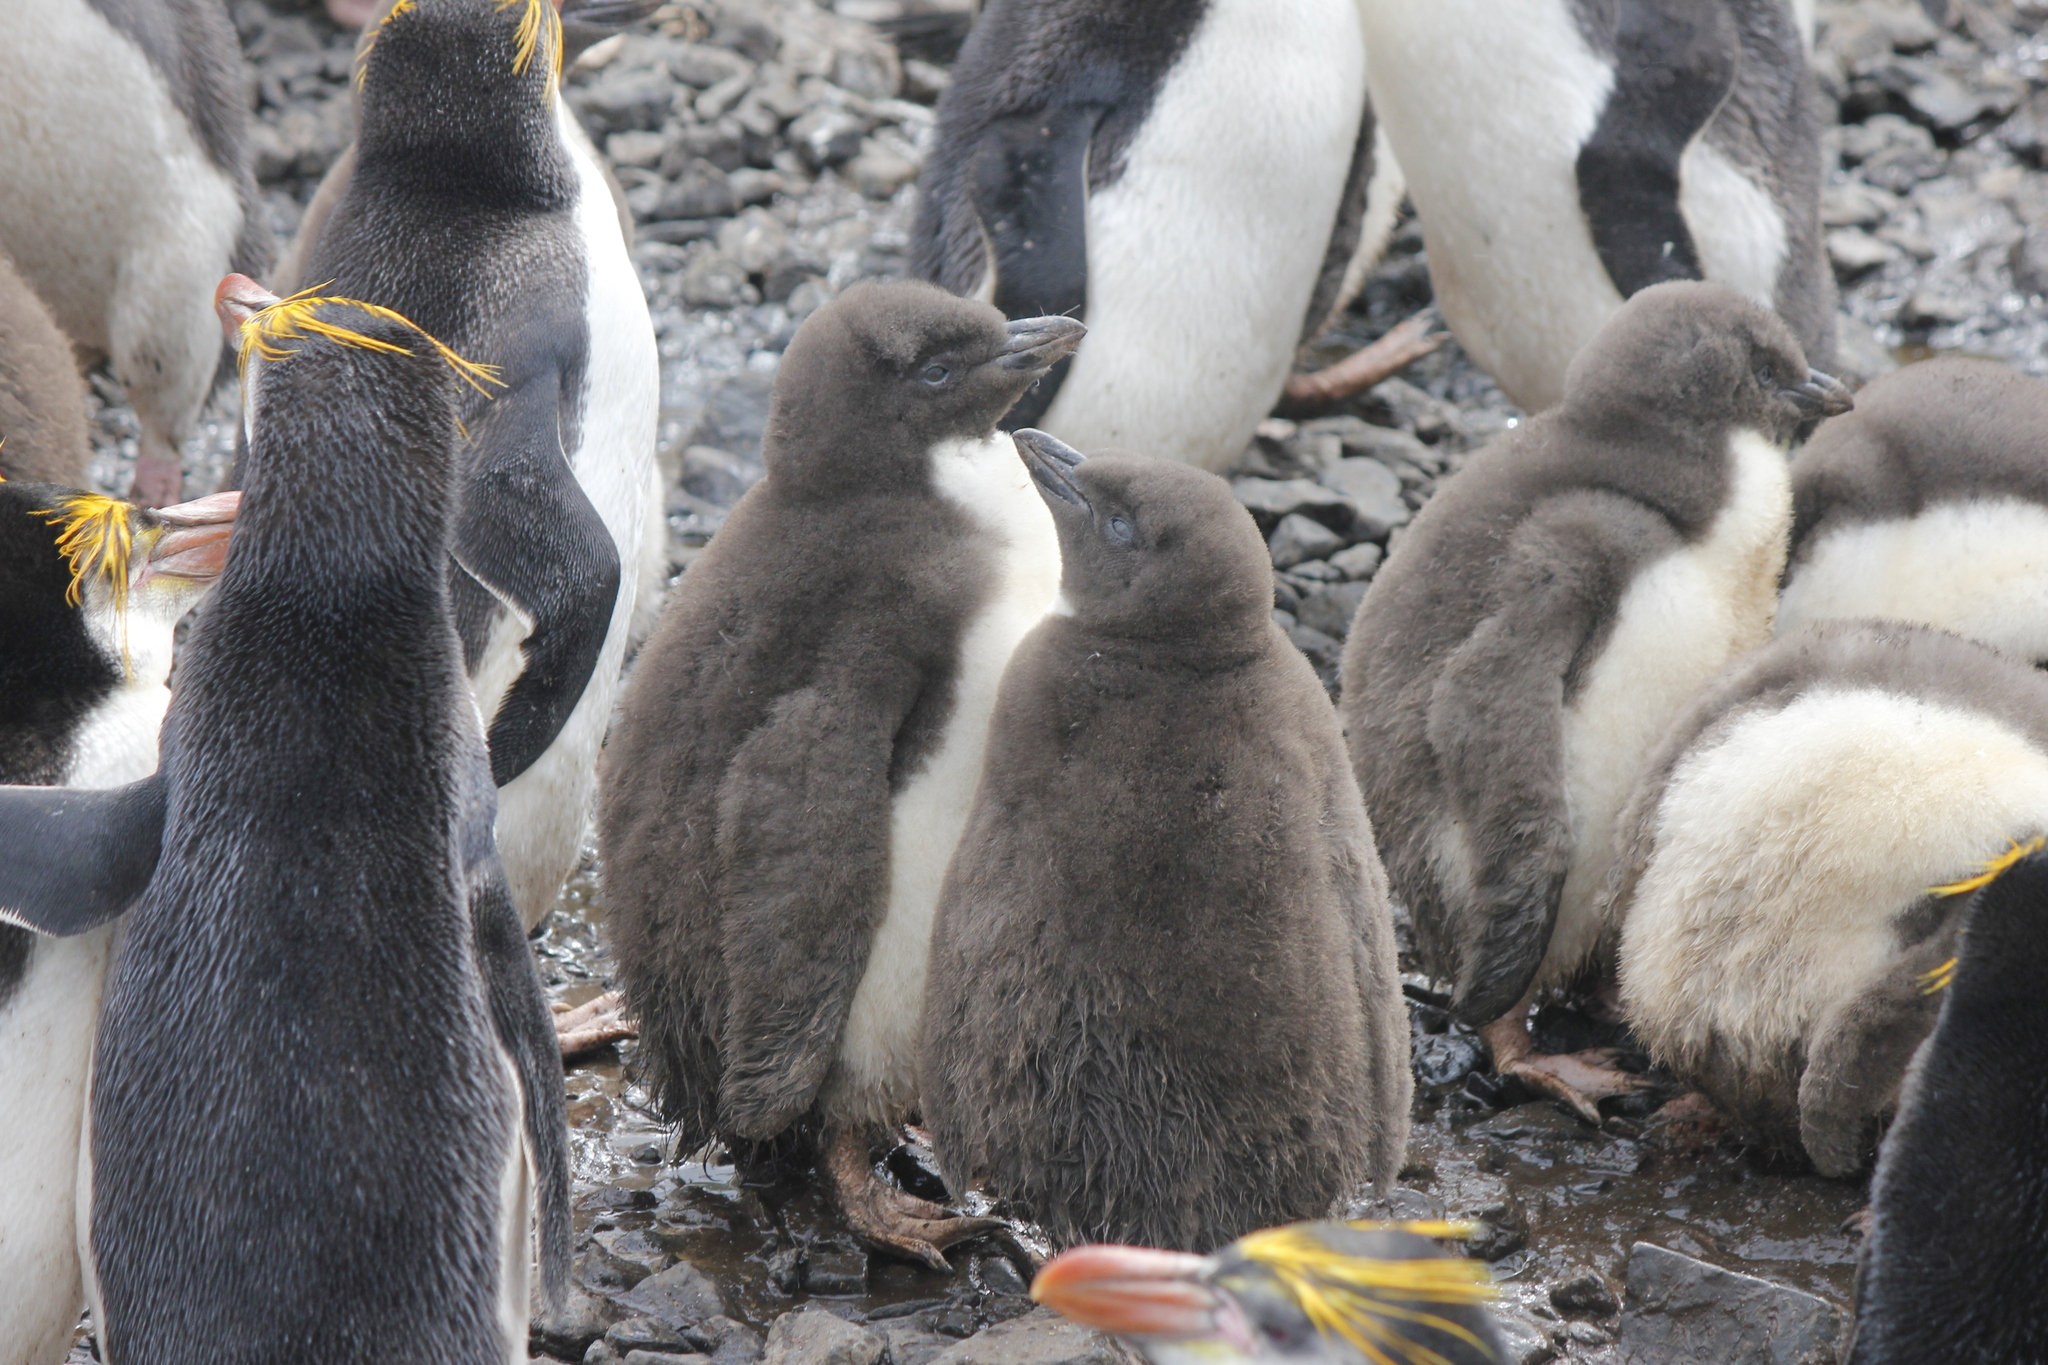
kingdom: Animalia
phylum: Chordata
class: Aves
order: Sphenisciformes
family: Spheniscidae
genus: Eudyptes
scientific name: Eudyptes schlegeli
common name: Royal penguin
